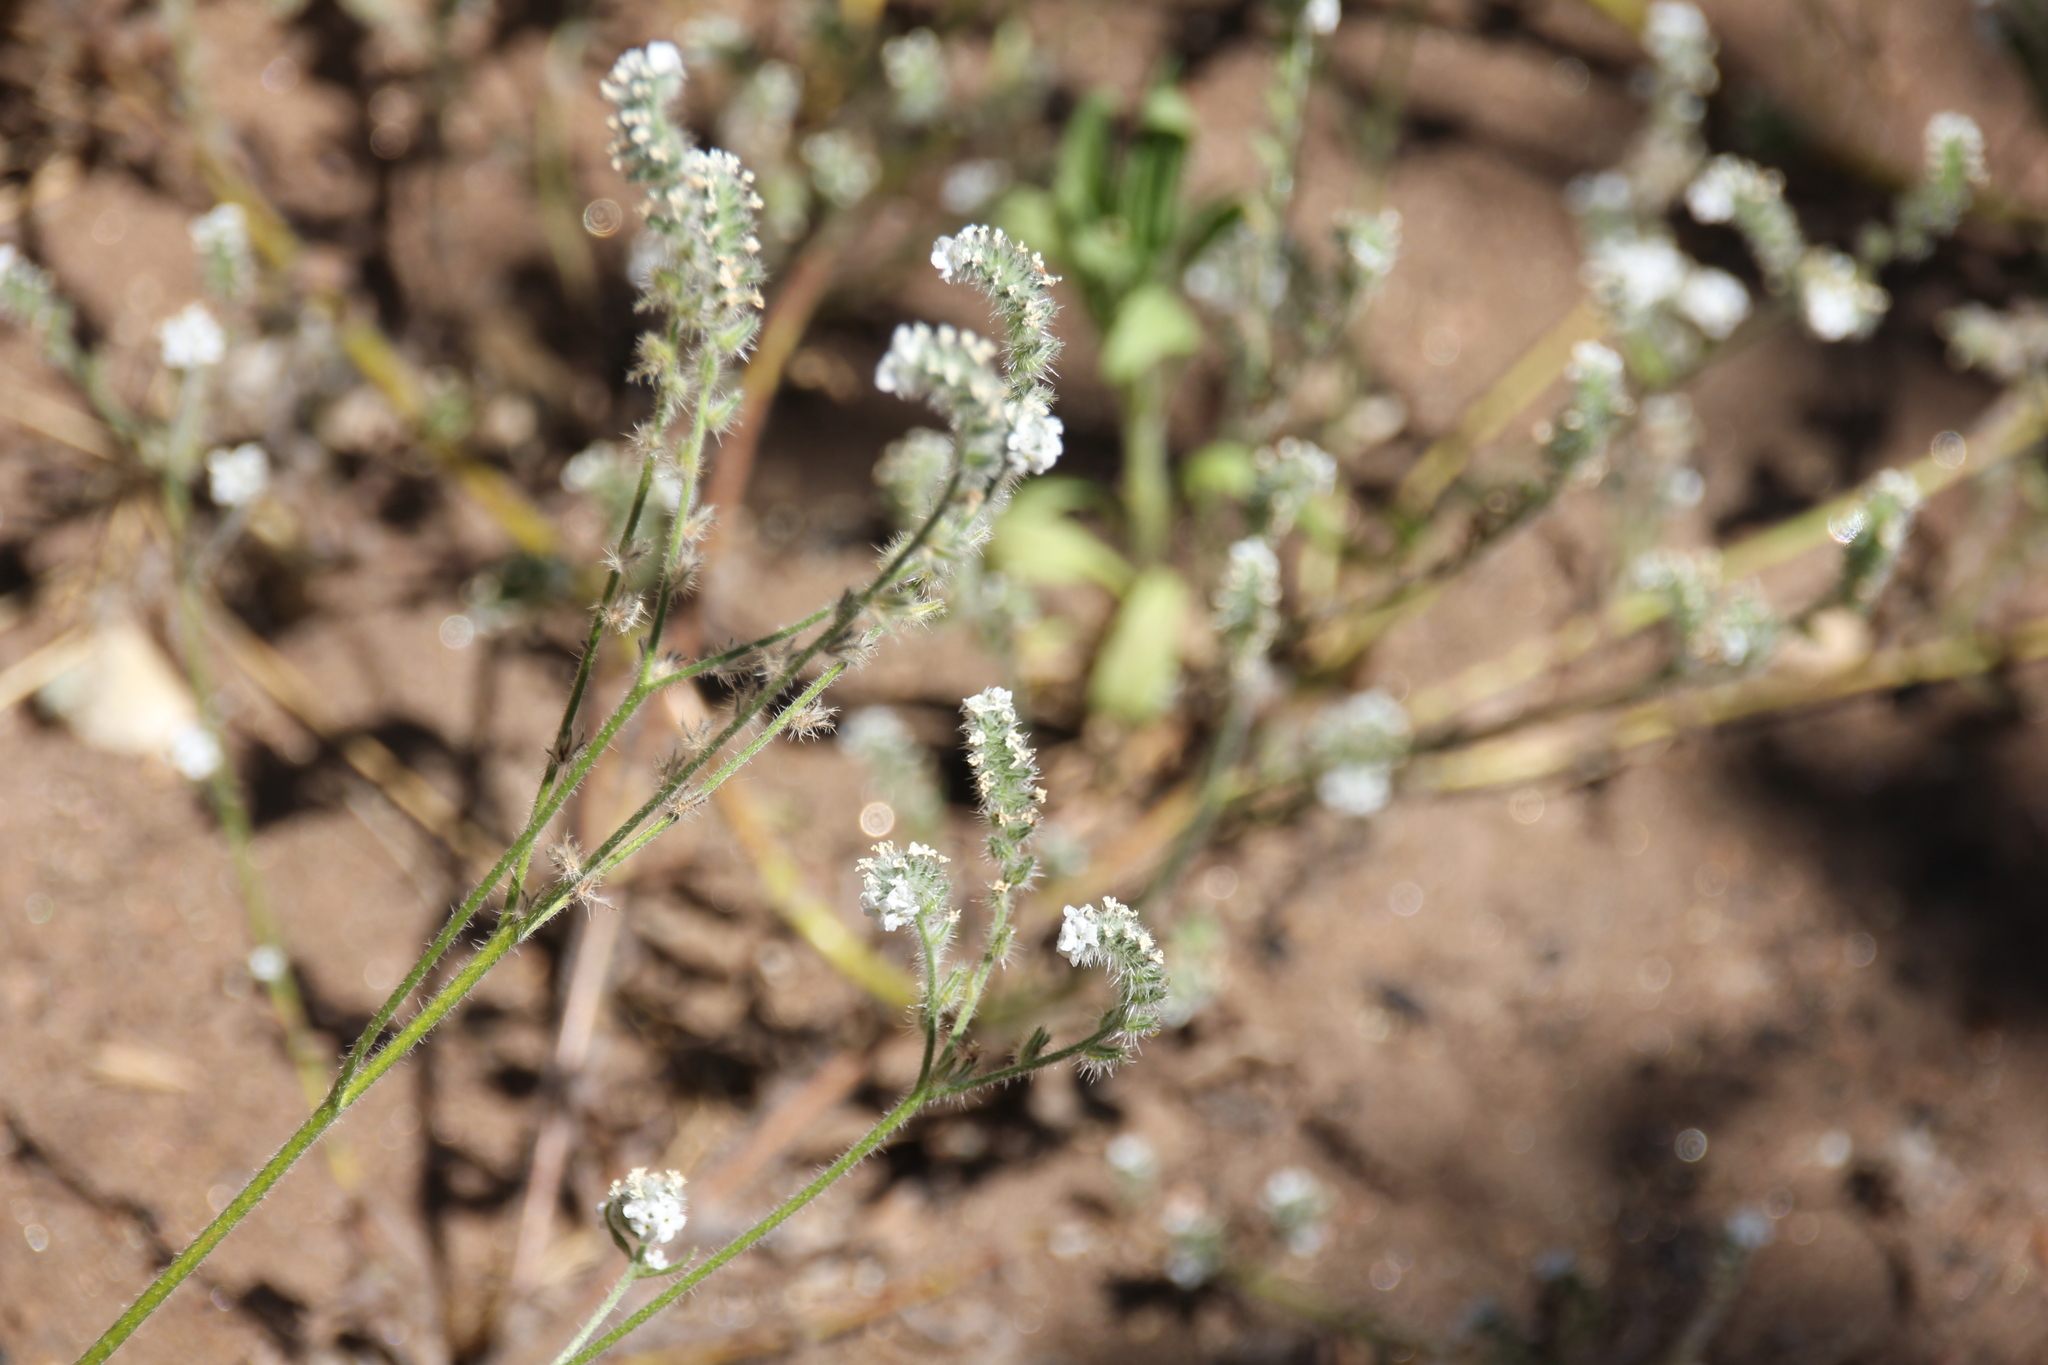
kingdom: Plantae
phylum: Tracheophyta
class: Magnoliopsida
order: Boraginales
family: Boraginaceae
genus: Cryptantha
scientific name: Cryptantha intermedia
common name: Clearwater cryptantha
